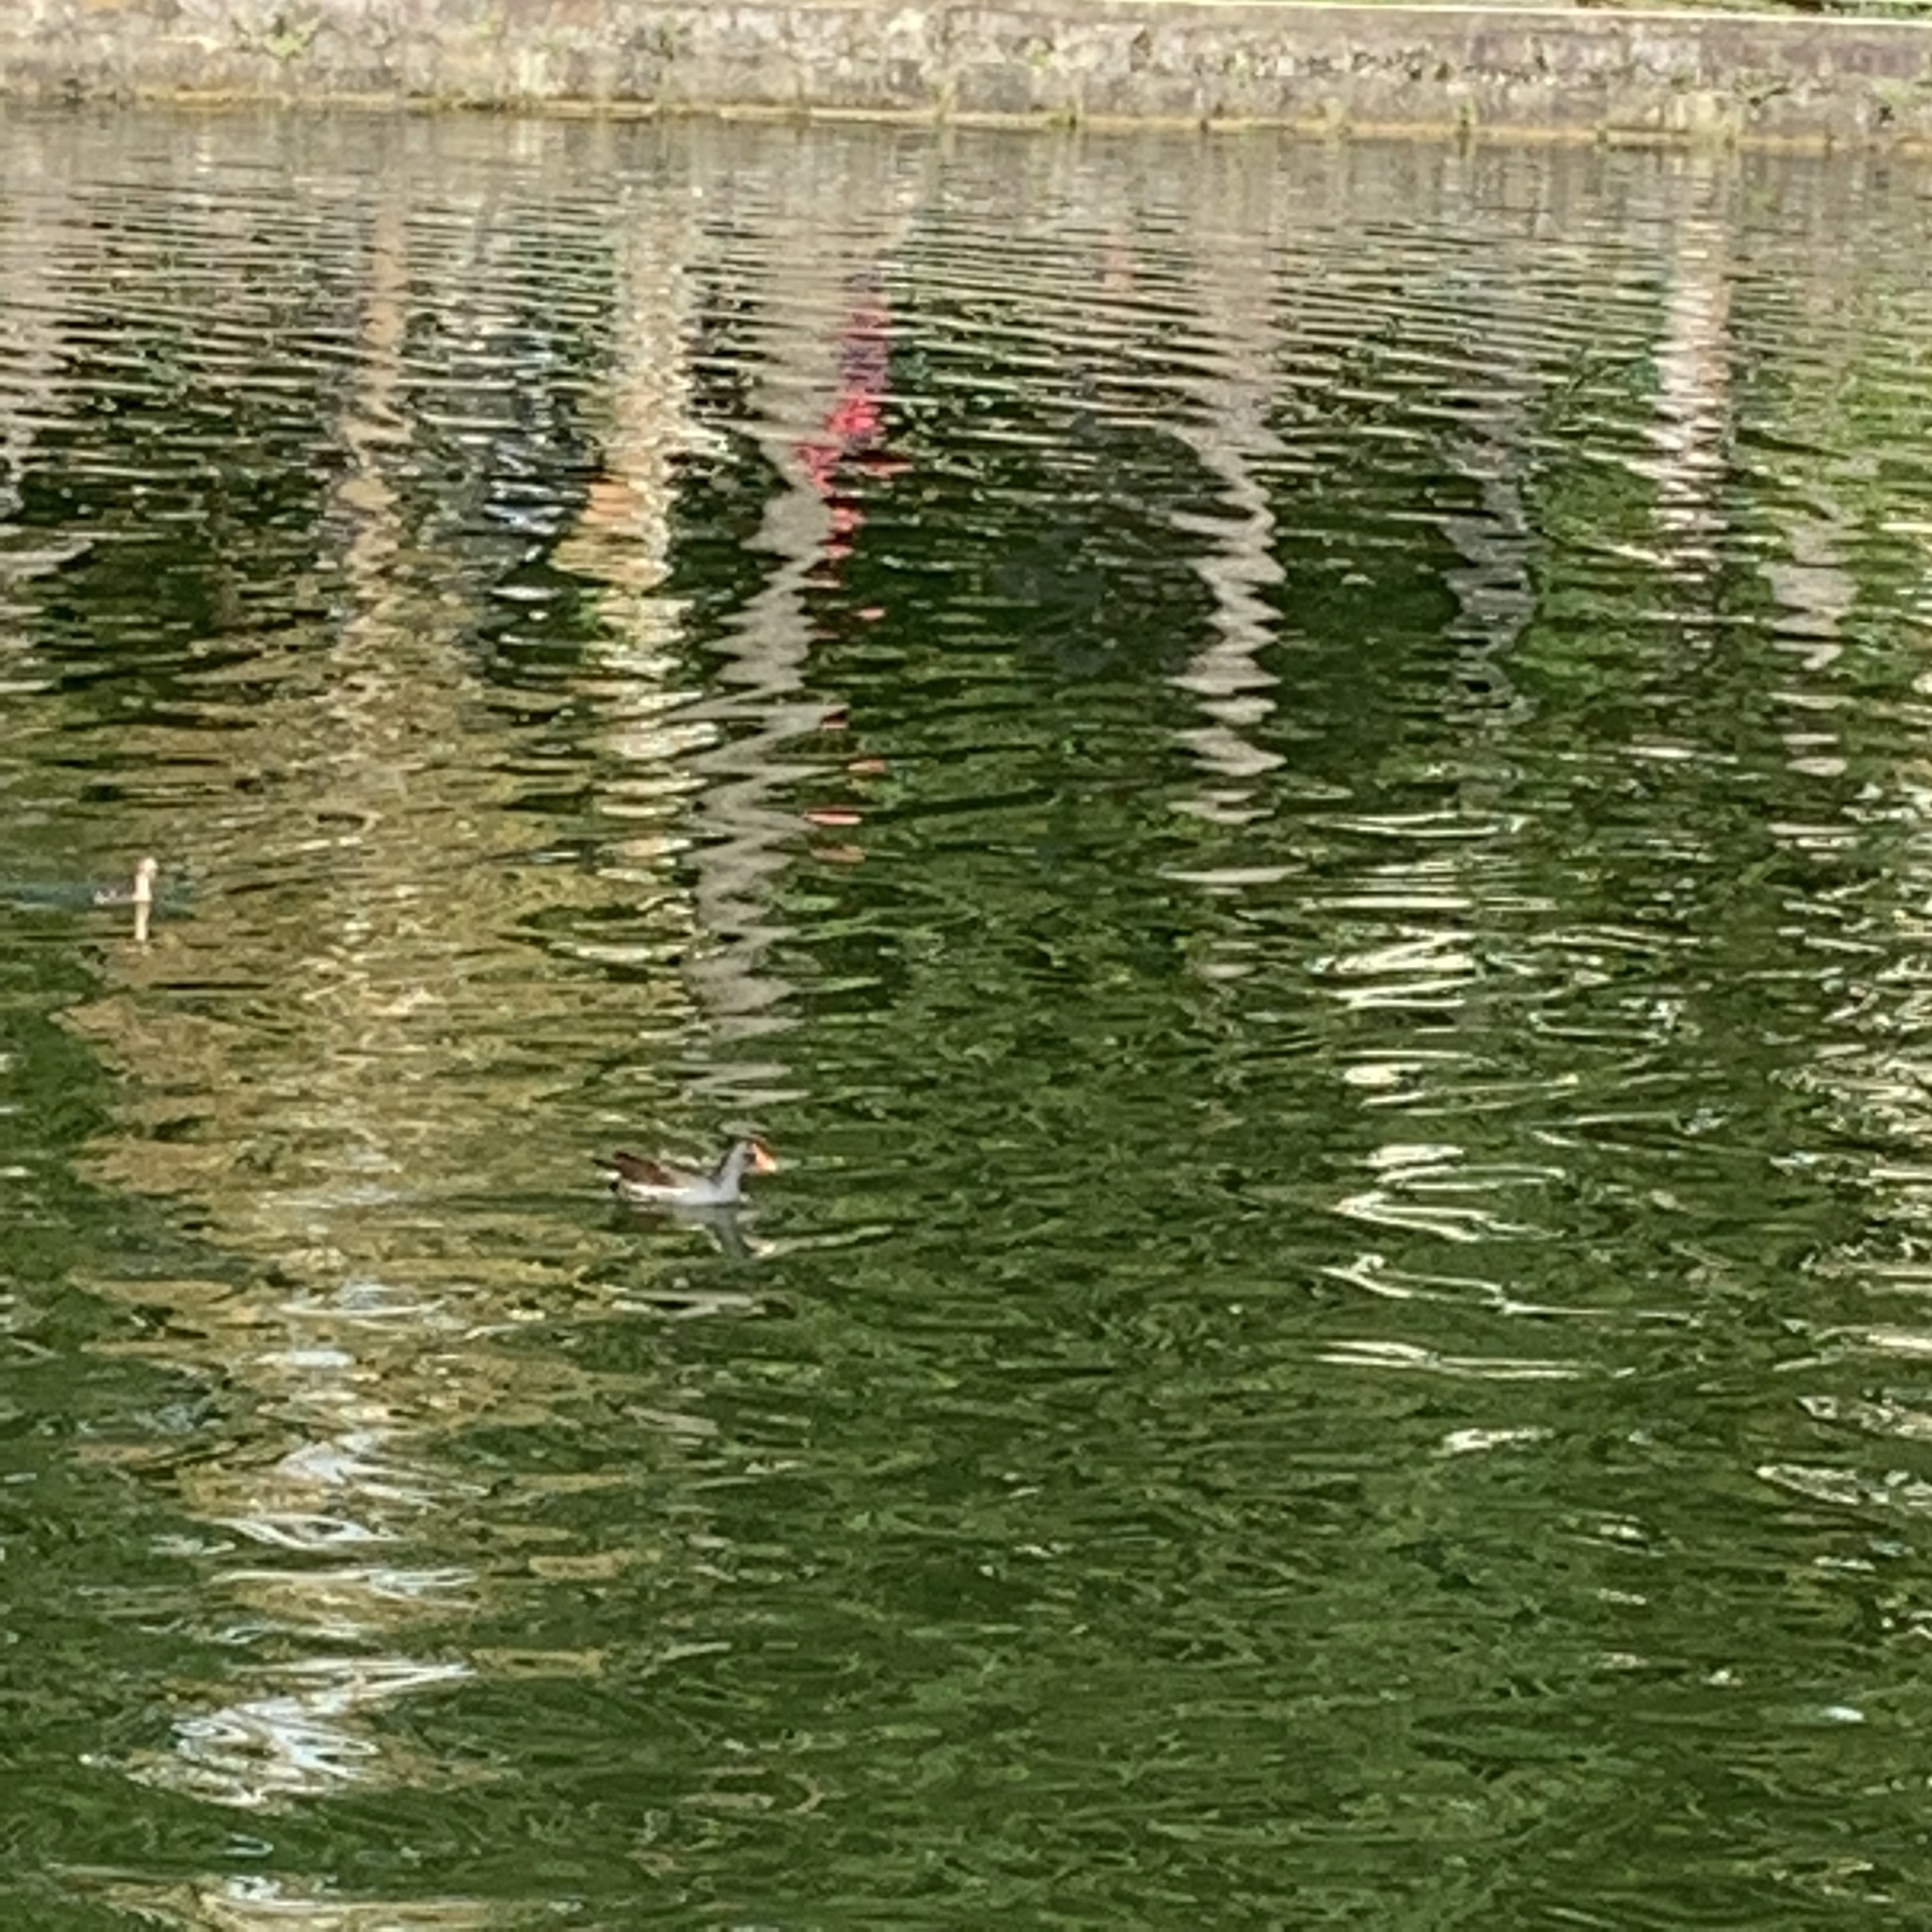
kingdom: Animalia
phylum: Chordata
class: Aves
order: Gruiformes
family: Rallidae
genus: Gallinula
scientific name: Gallinula chloropus
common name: Common moorhen
